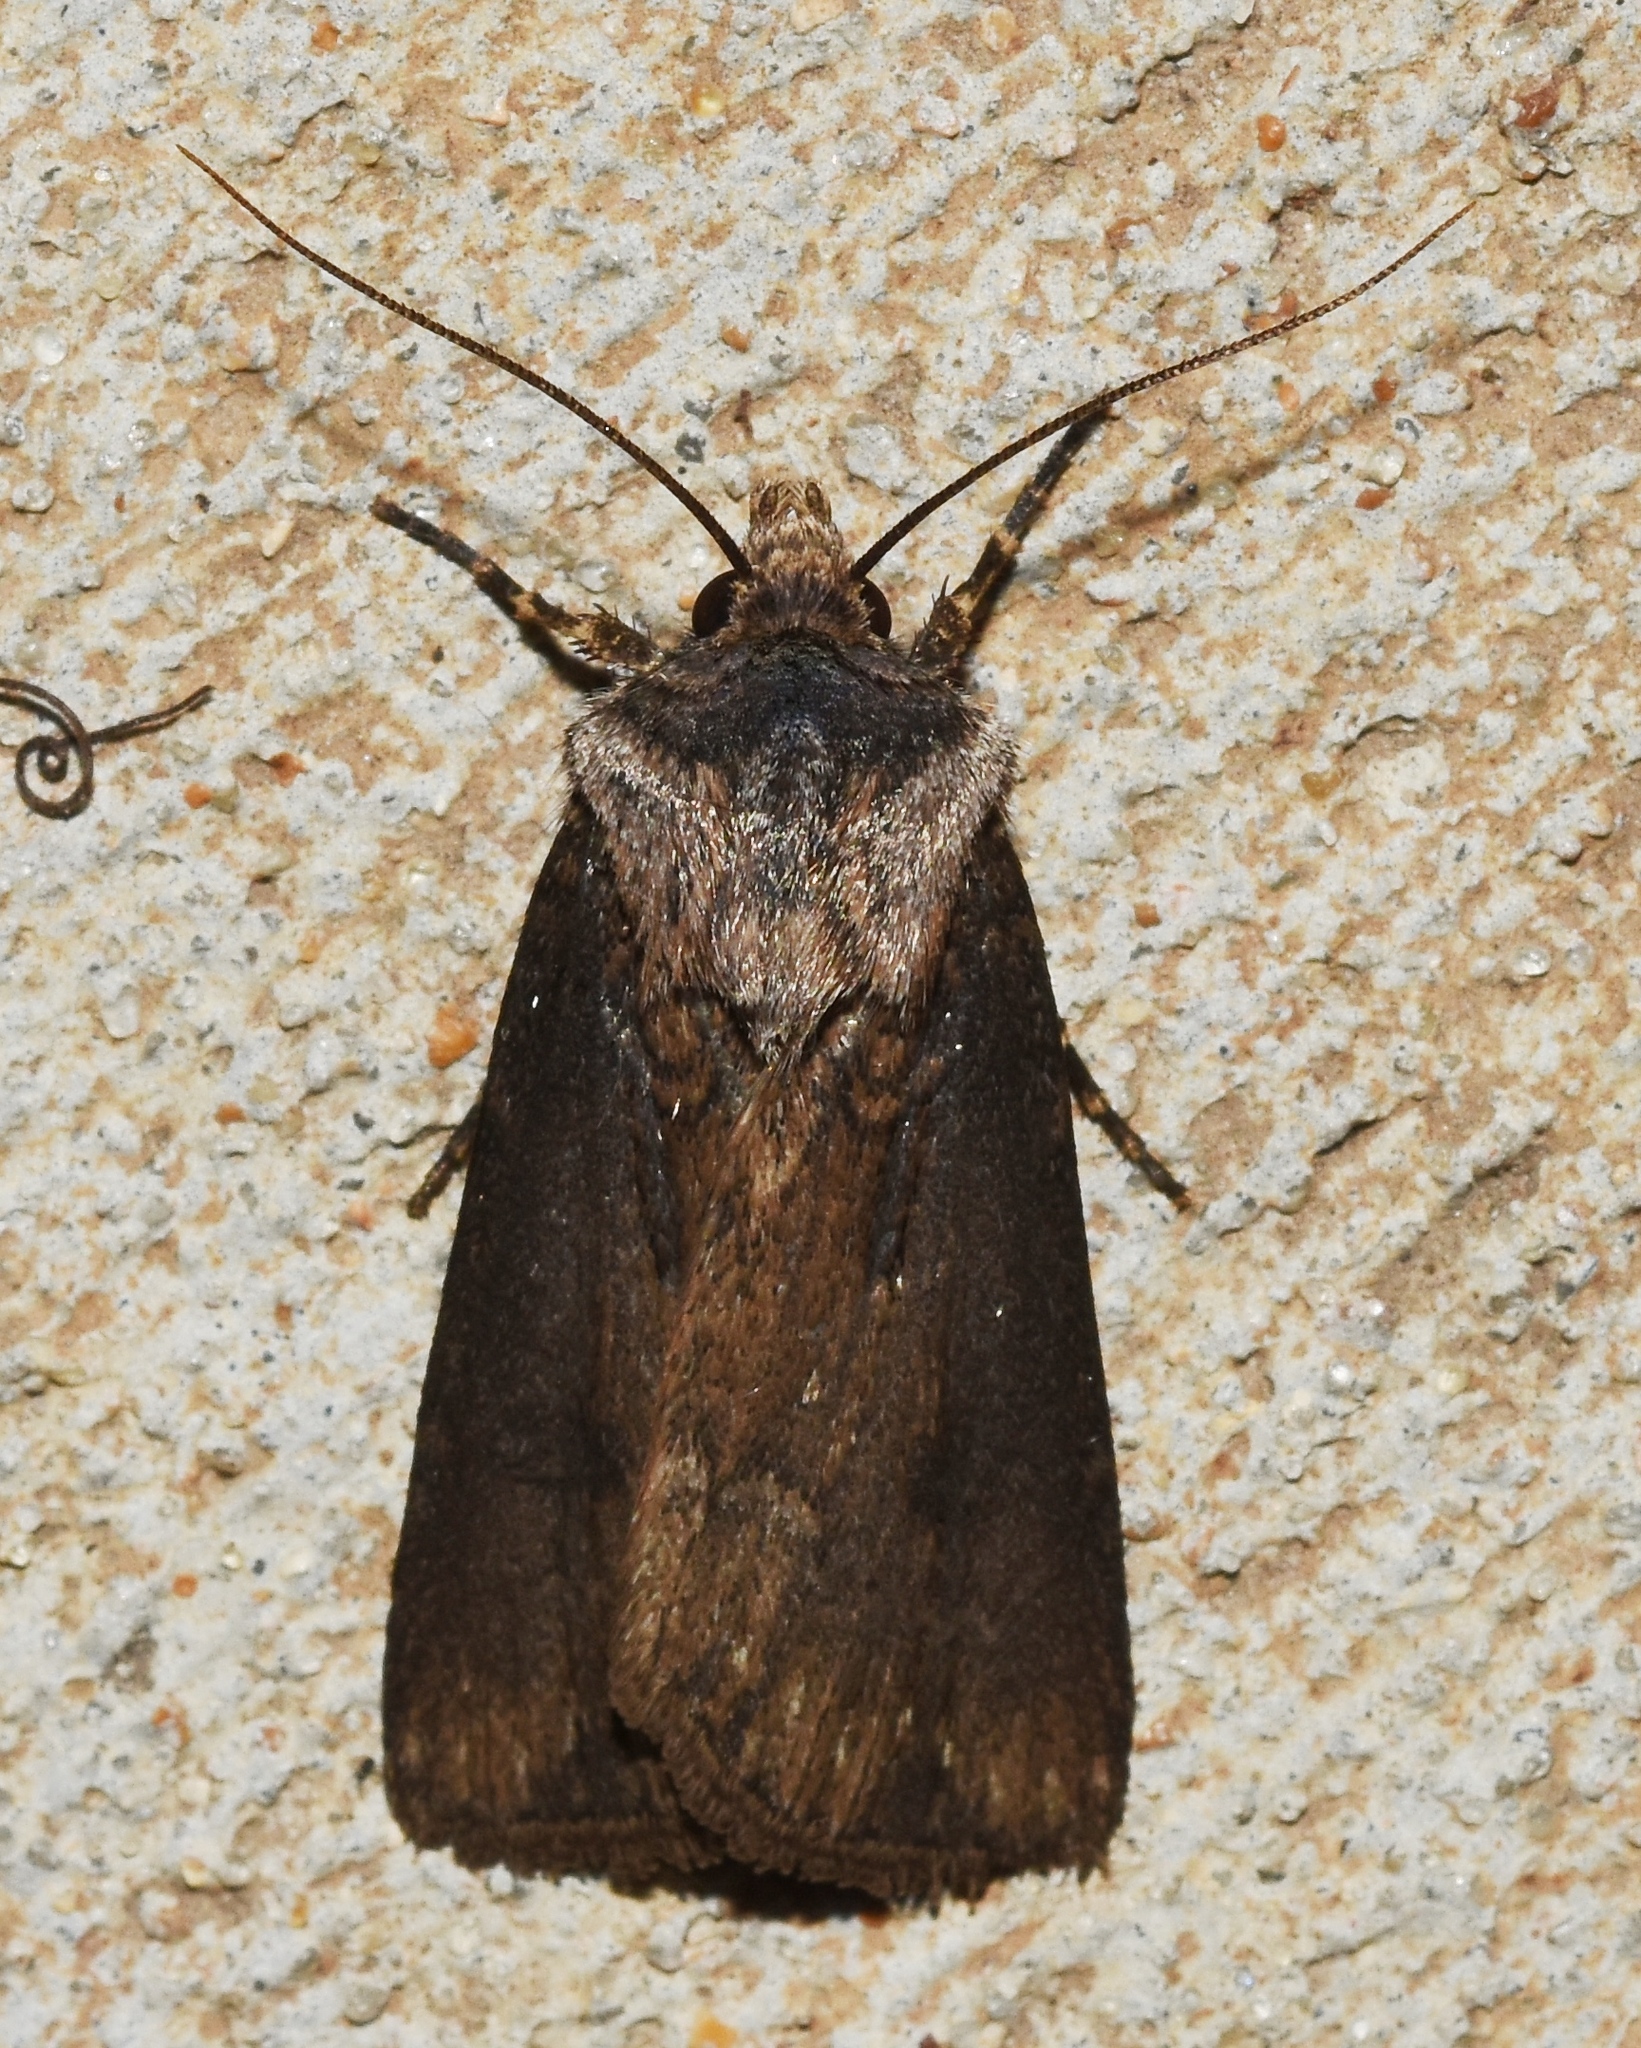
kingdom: Animalia
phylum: Arthropoda
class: Insecta
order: Lepidoptera
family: Noctuidae
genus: Agrotis
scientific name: Agrotis venerabilis
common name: Venerable dart
